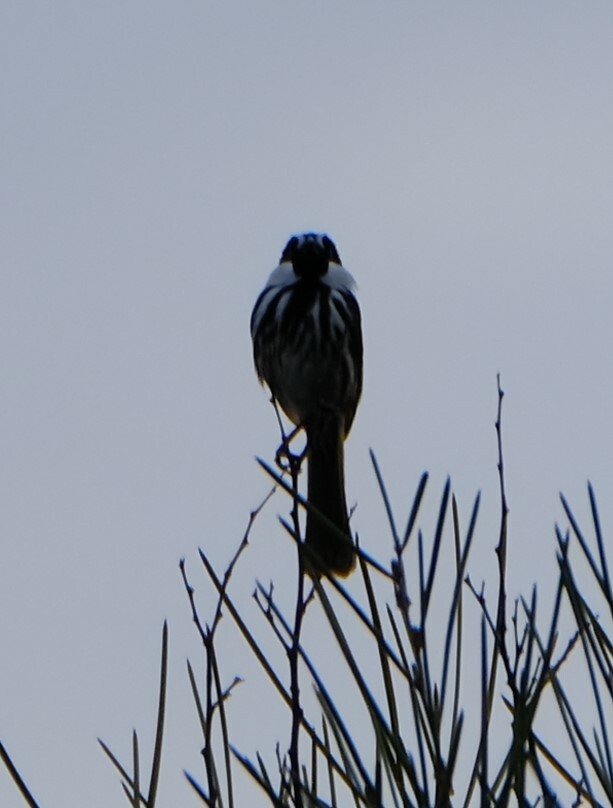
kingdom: Animalia
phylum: Chordata
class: Aves
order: Passeriformes
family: Meliphagidae
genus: Phylidonyris
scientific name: Phylidonyris niger
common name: White-cheeked honeyeater
